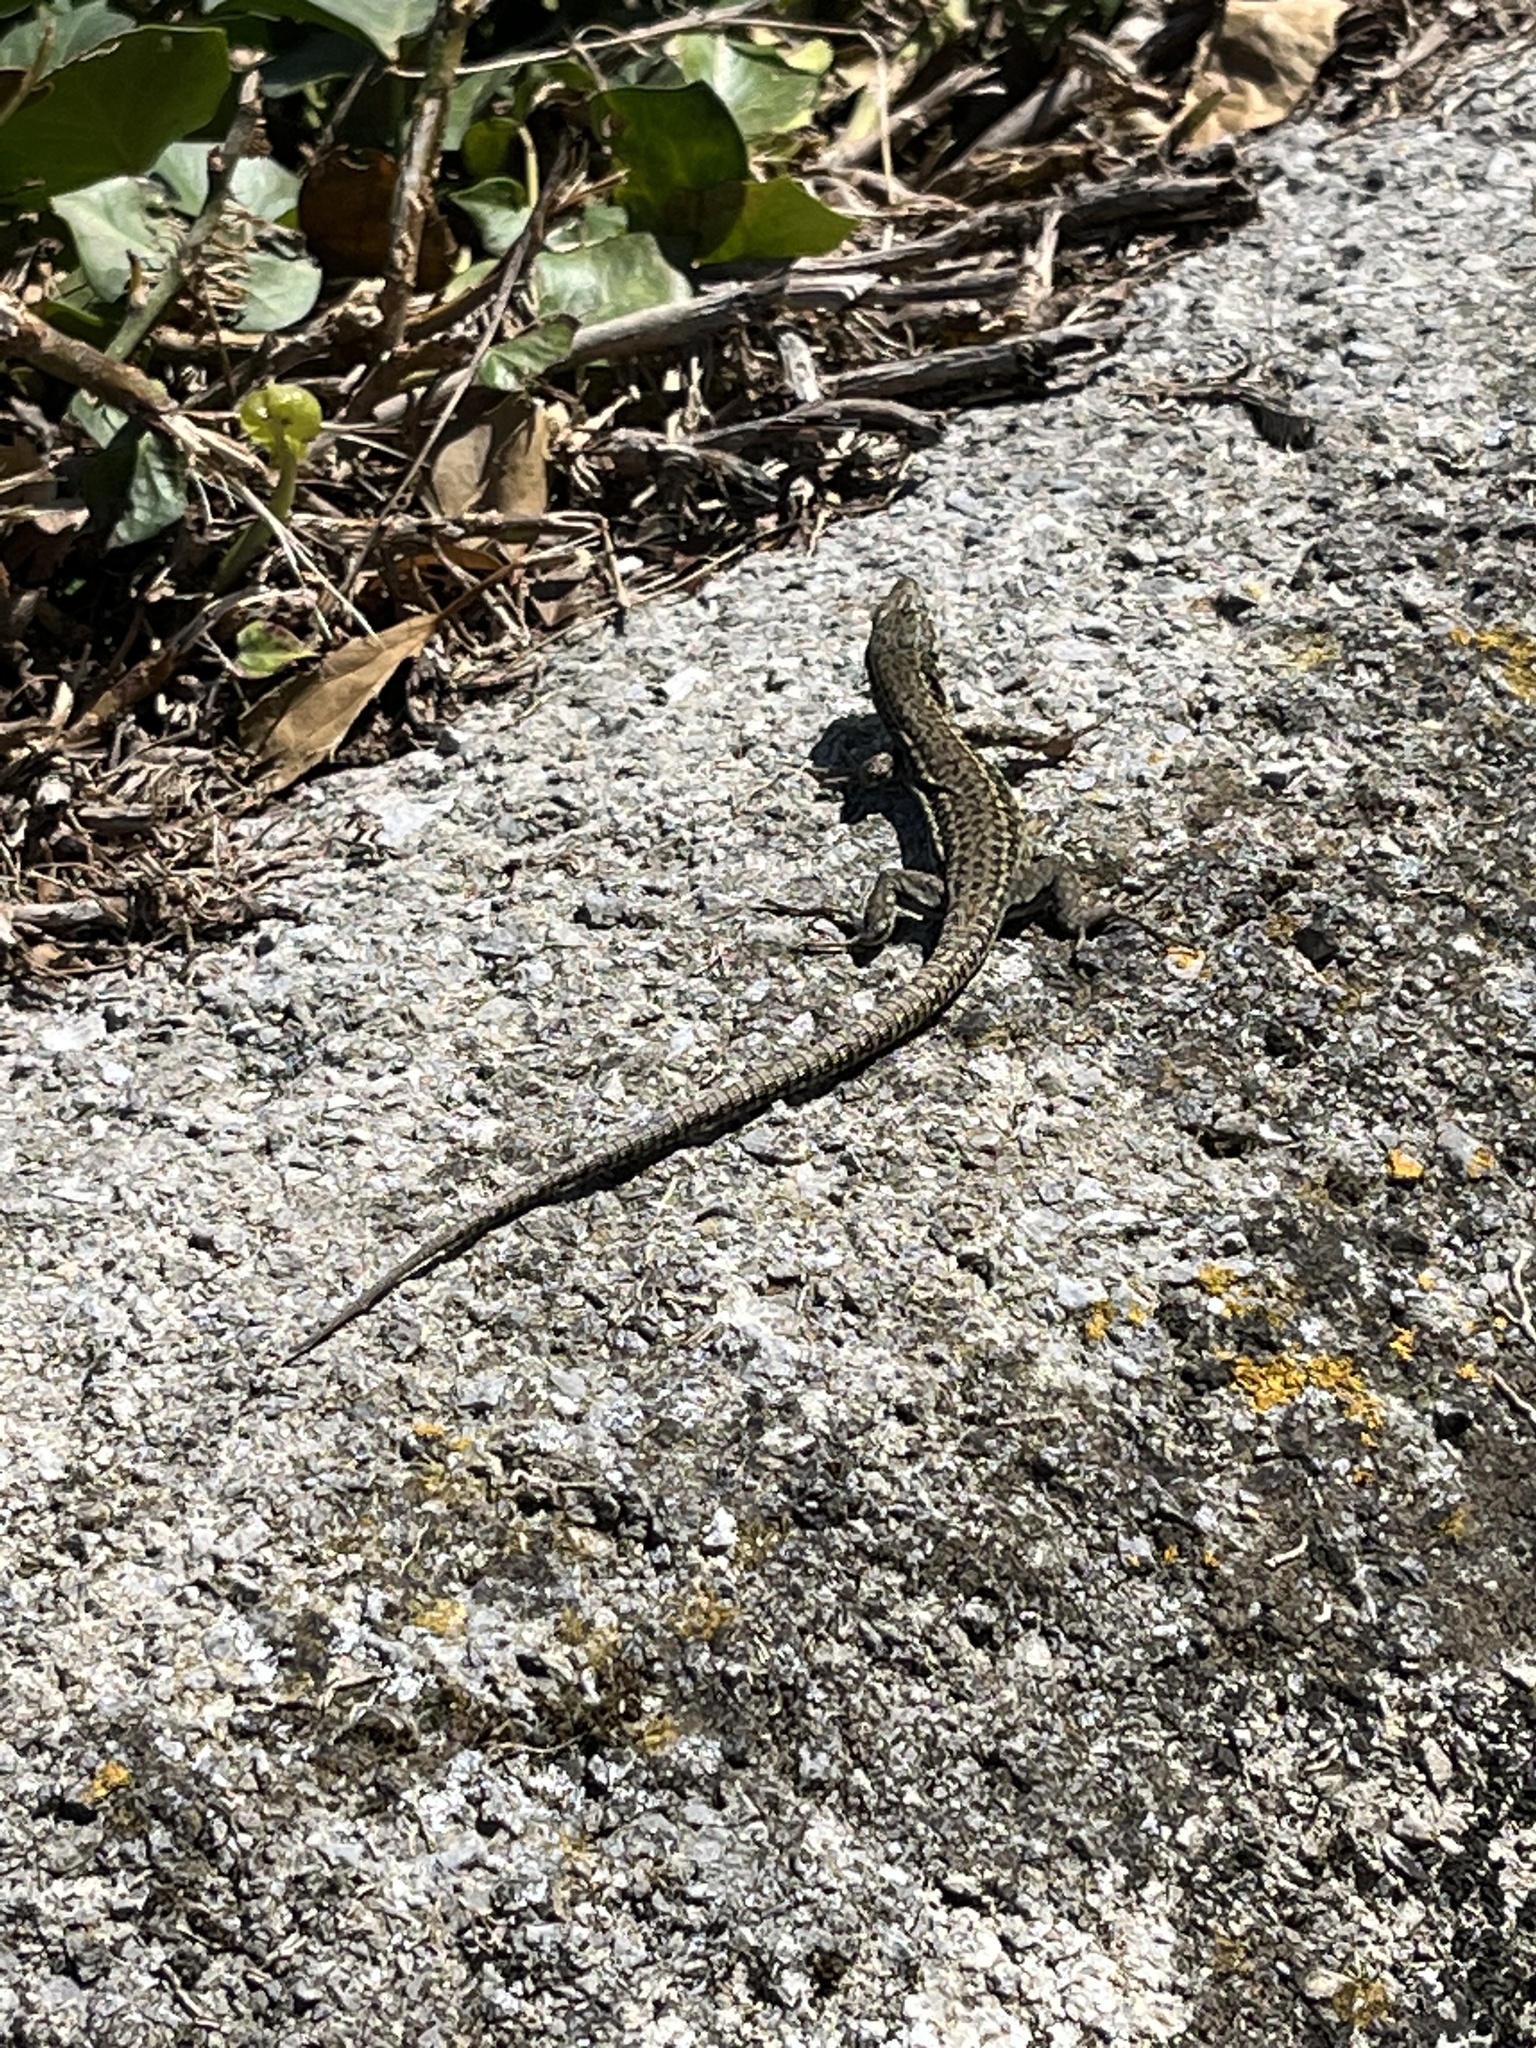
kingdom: Animalia
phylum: Chordata
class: Squamata
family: Lacertidae
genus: Podarcis
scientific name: Podarcis liolepis
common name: Catalonian wall lizard
